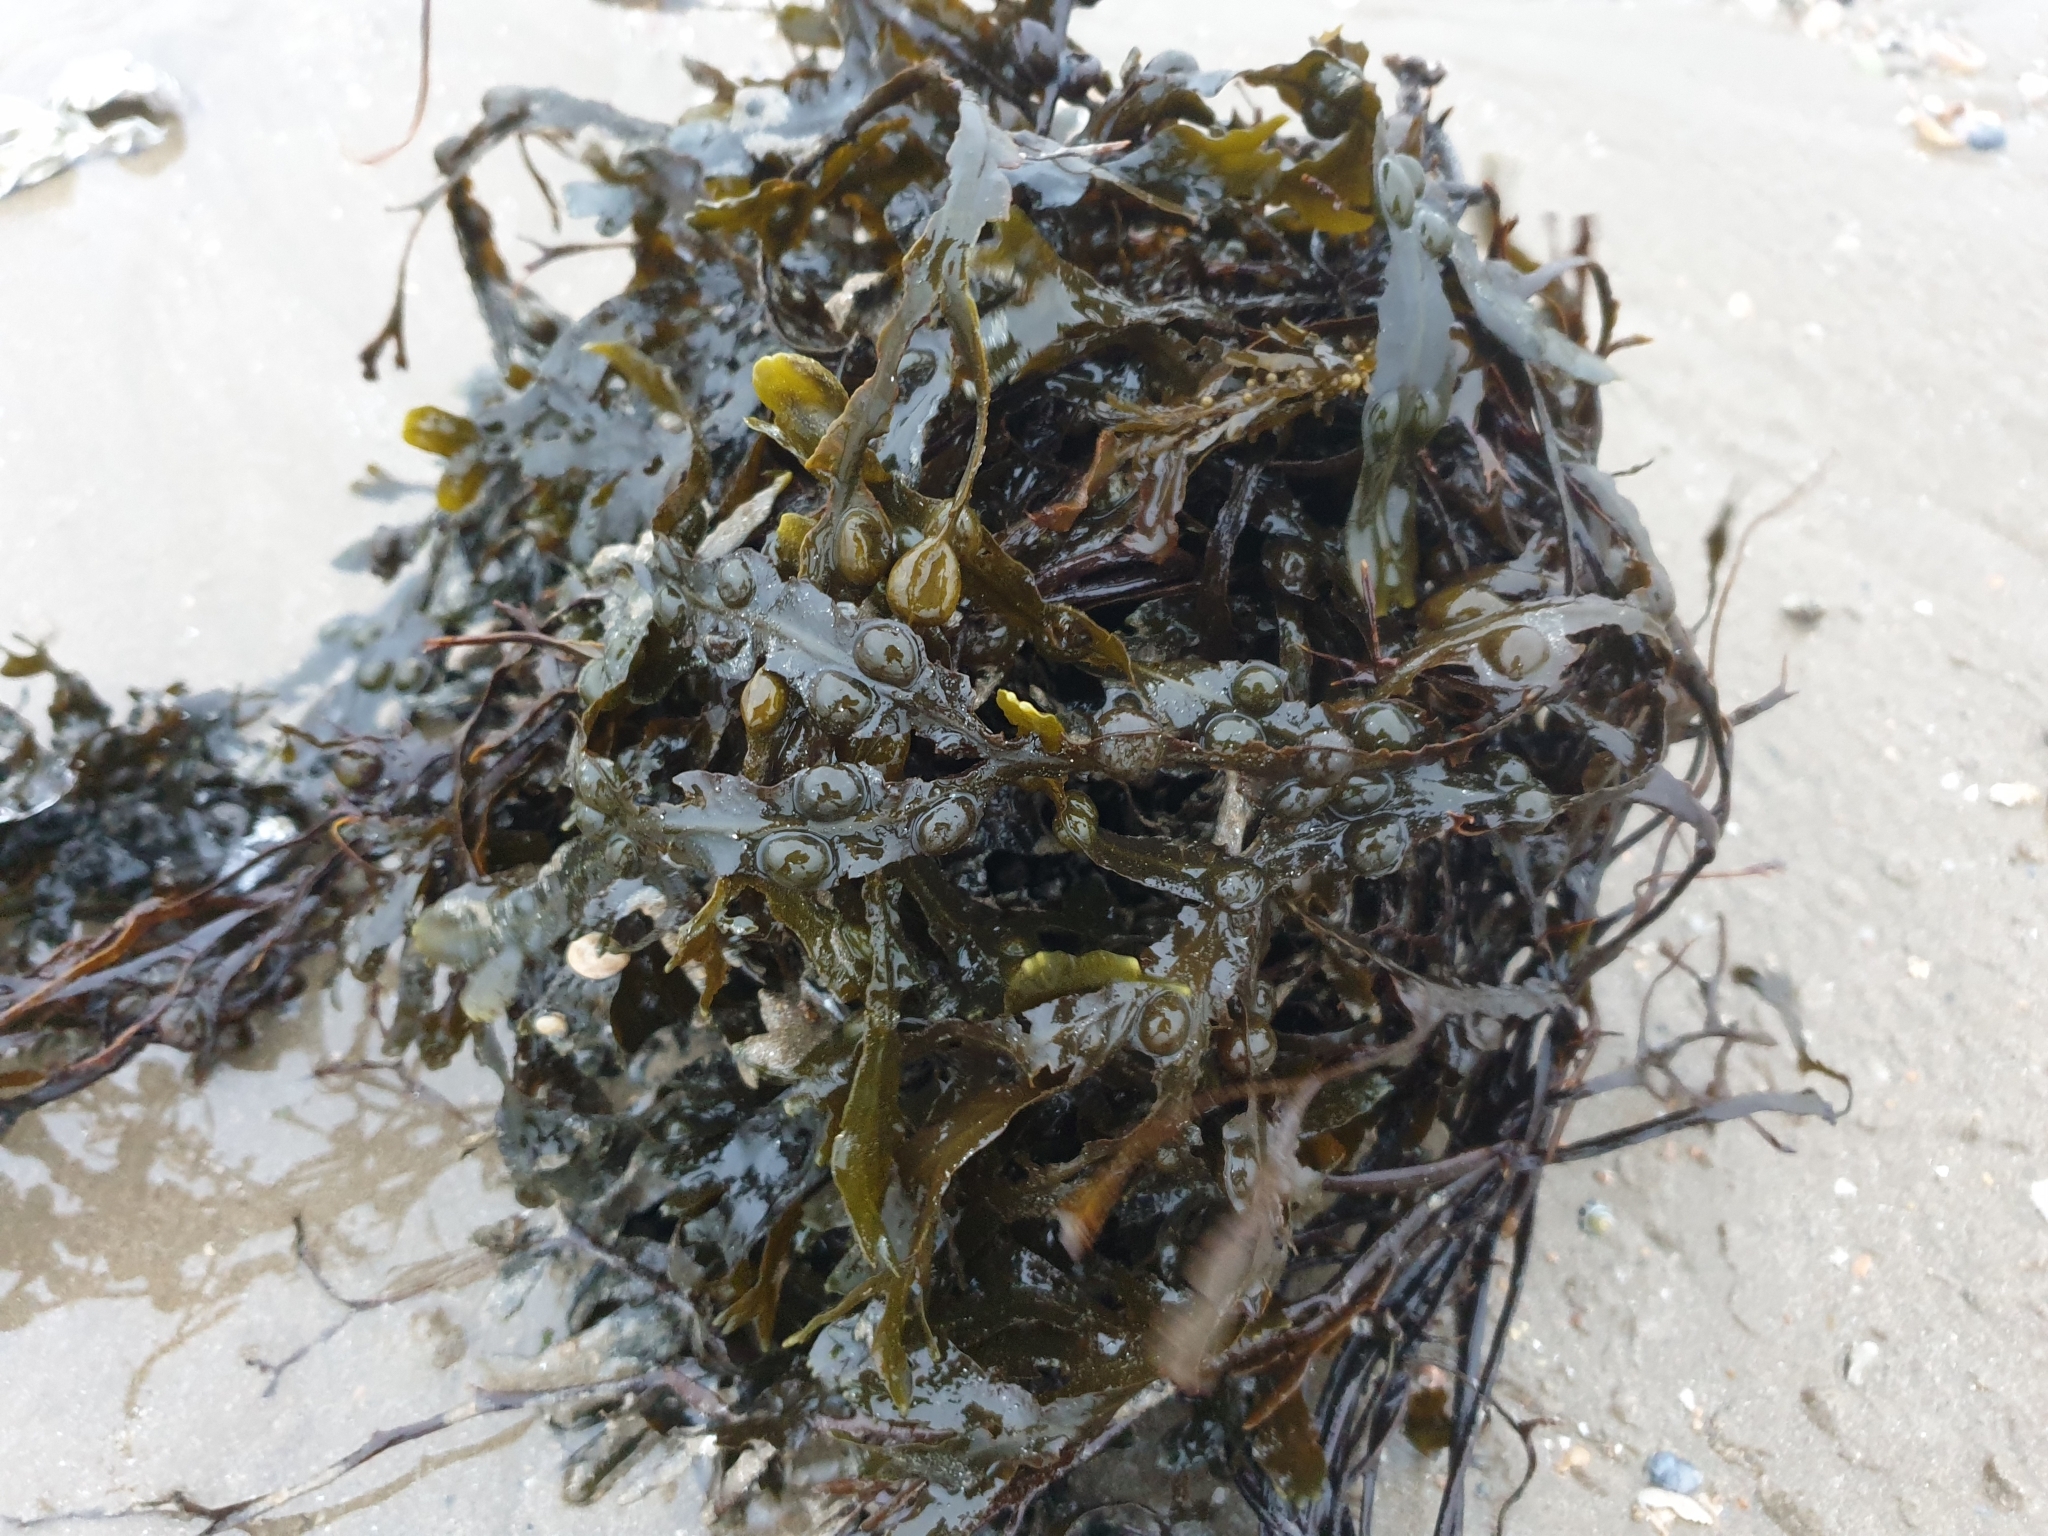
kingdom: Chromista
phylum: Ochrophyta
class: Phaeophyceae
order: Fucales
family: Fucaceae
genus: Fucus
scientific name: Fucus vesiculosus
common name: Bladder wrack
